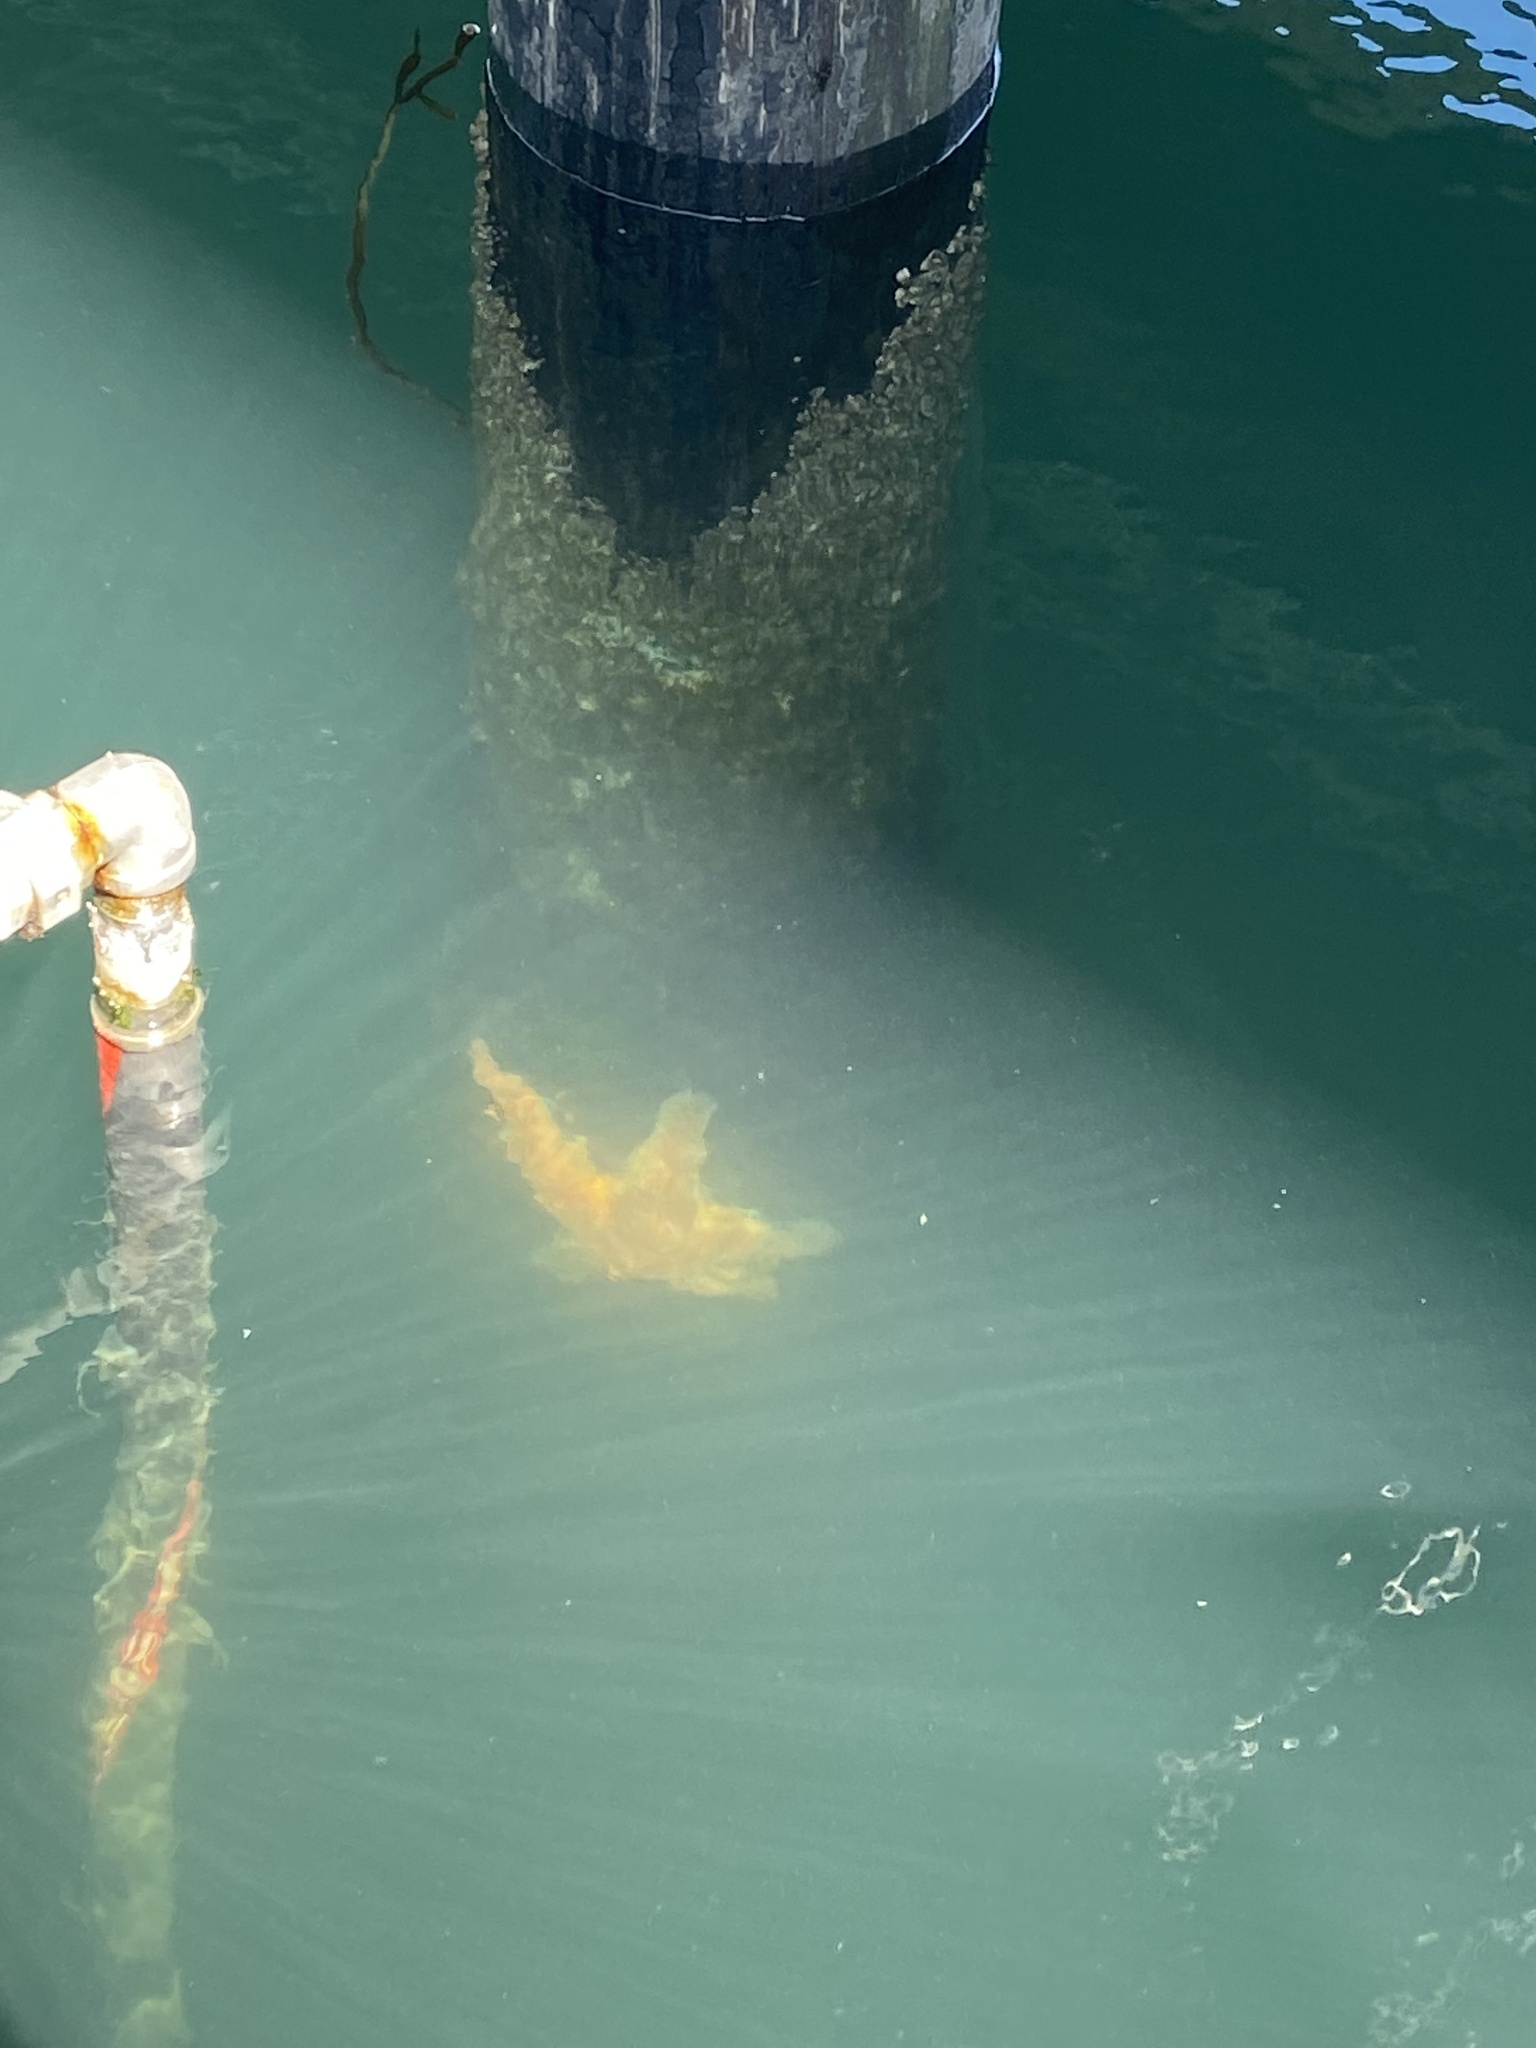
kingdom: Animalia
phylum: Echinodermata
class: Asteroidea
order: Forcipulatida
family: Asteriidae
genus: Pisaster
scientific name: Pisaster ochraceus
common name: Ochre stars
